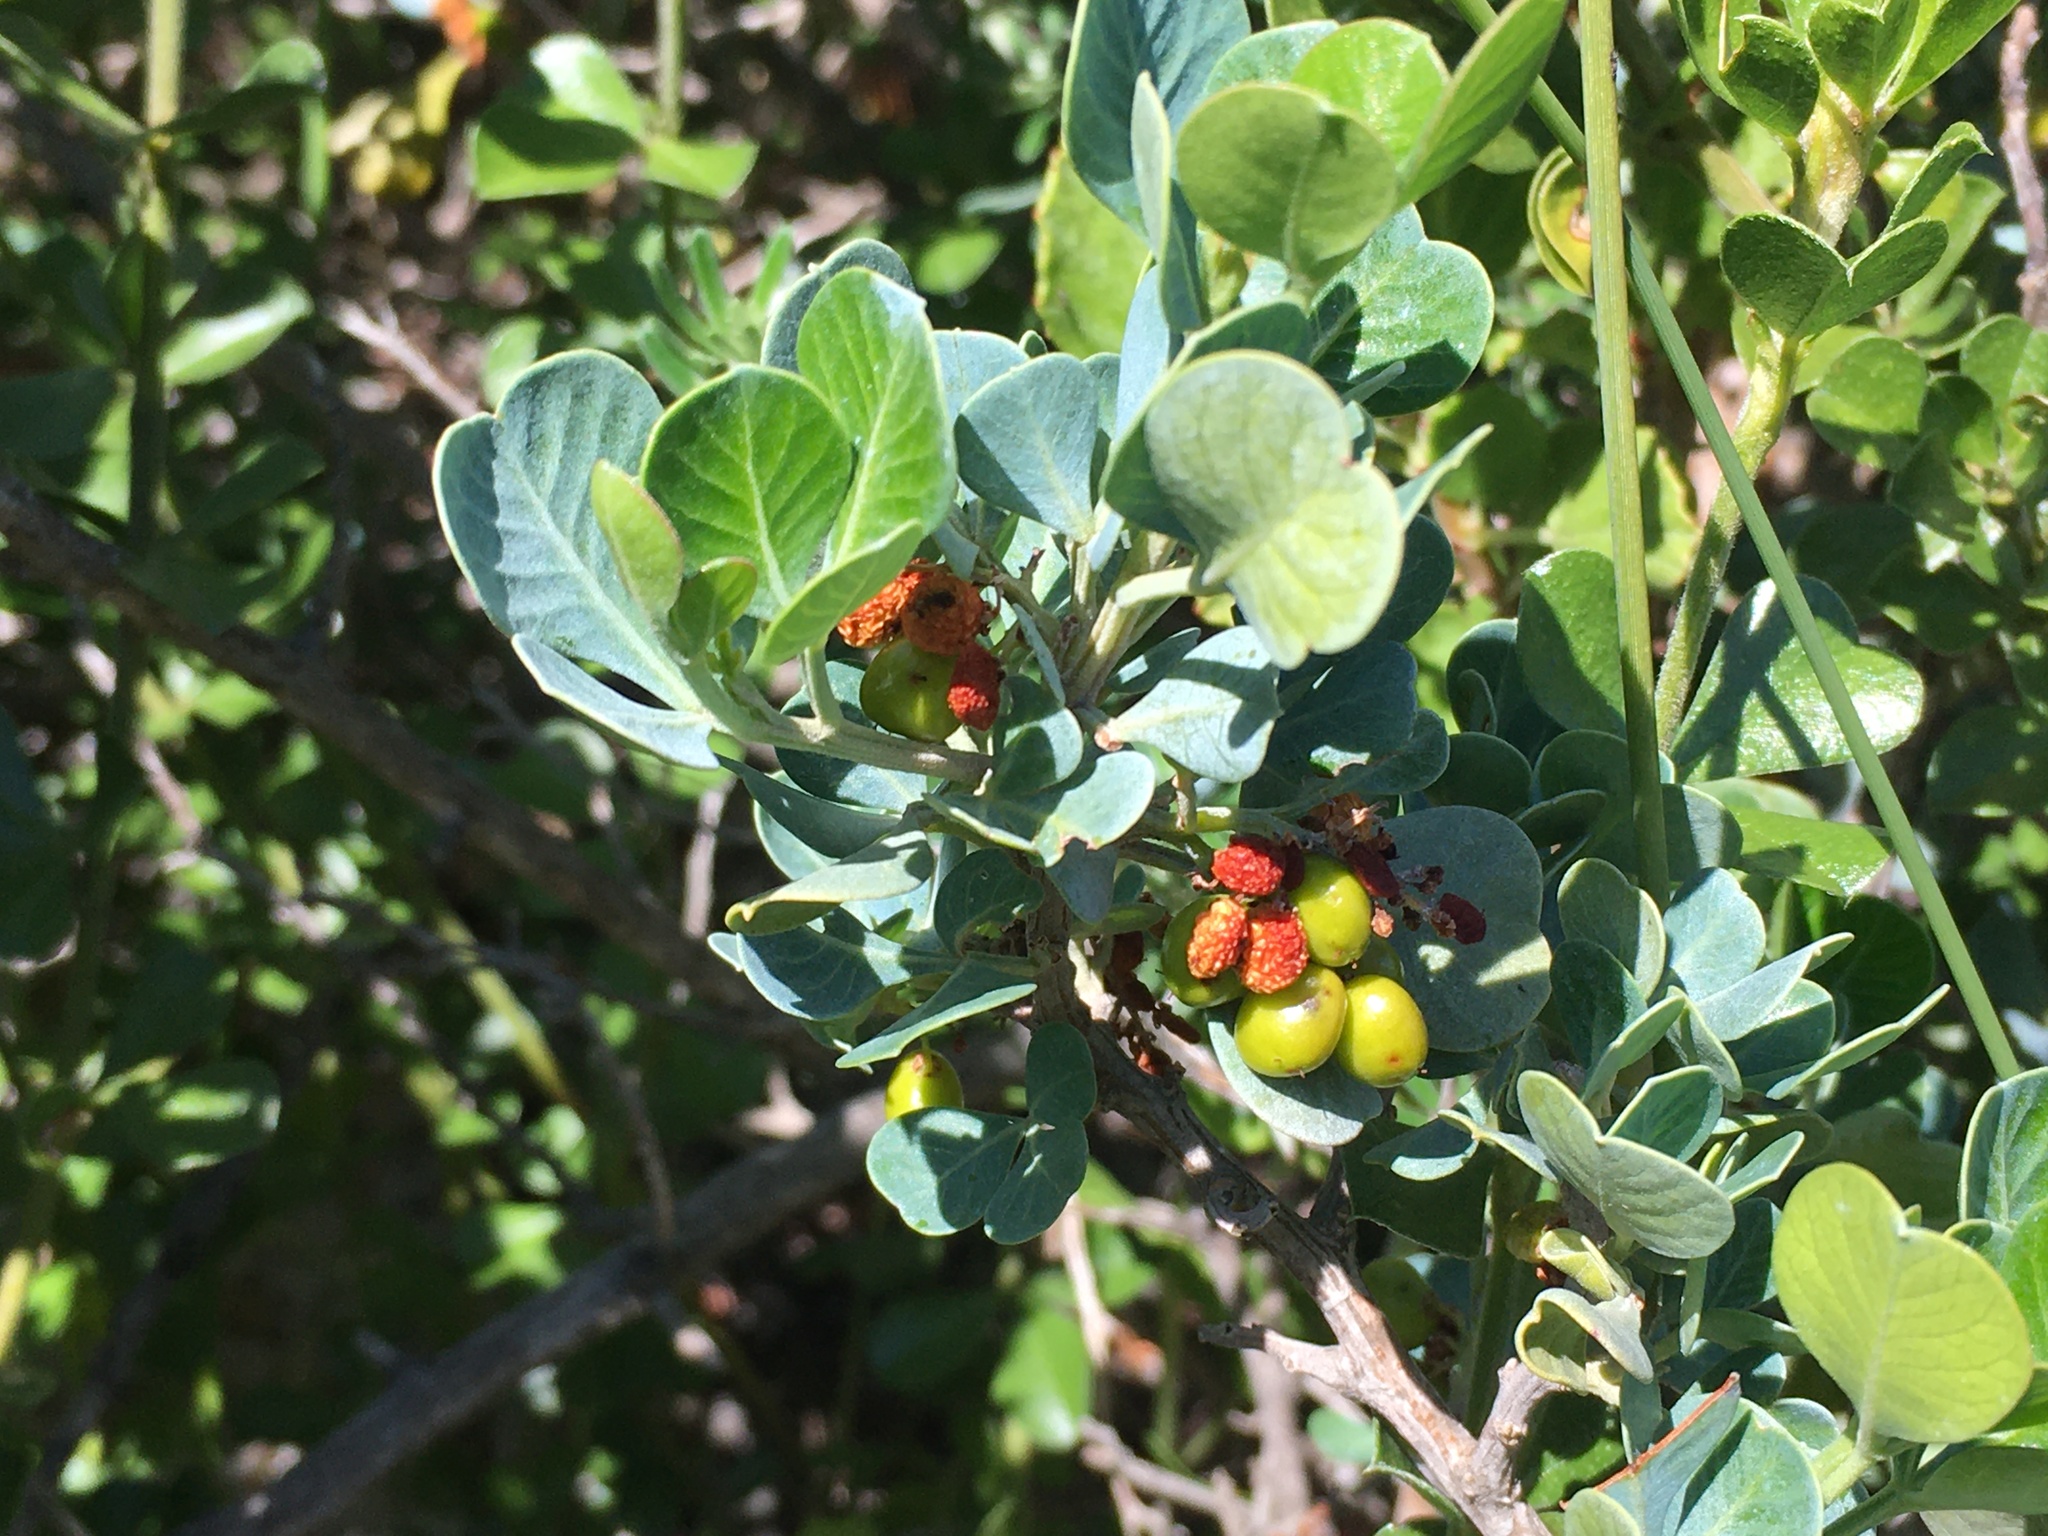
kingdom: Plantae
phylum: Tracheophyta
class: Magnoliopsida
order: Sapindales
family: Anacardiaceae
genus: Searsia
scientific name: Searsia glauca
